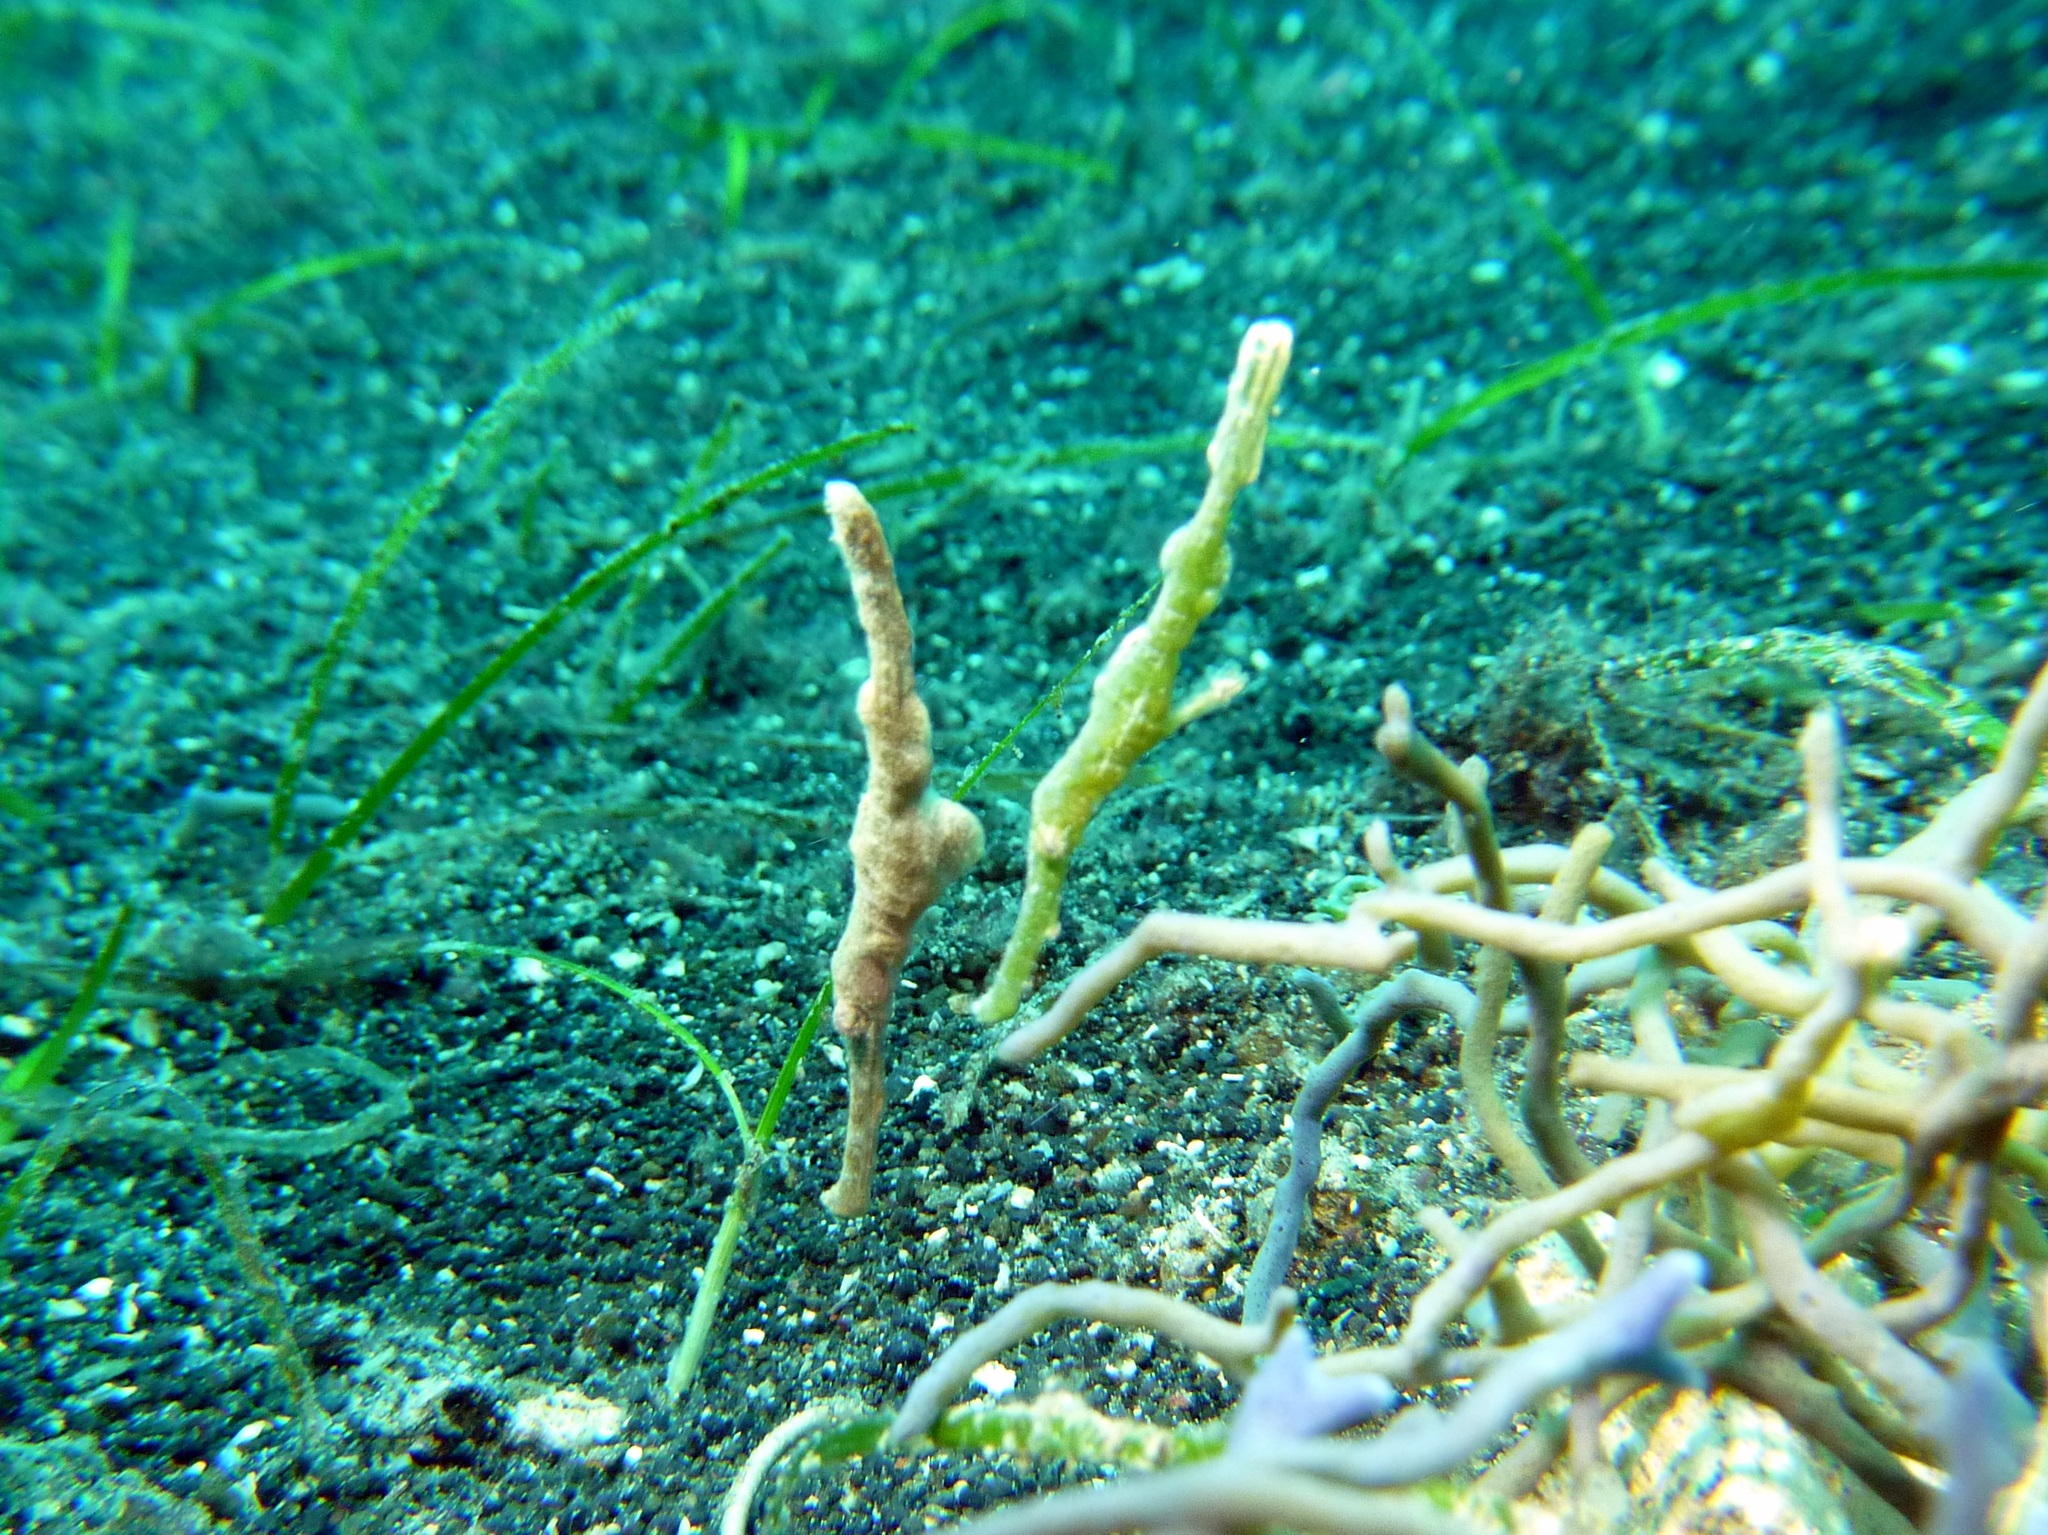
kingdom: Animalia
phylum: Chordata
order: Syngnathiformes
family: Solenostomidae
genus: Solenostomus
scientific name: Solenostomus cyanopterus
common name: Blue-finned ghost pipefish
